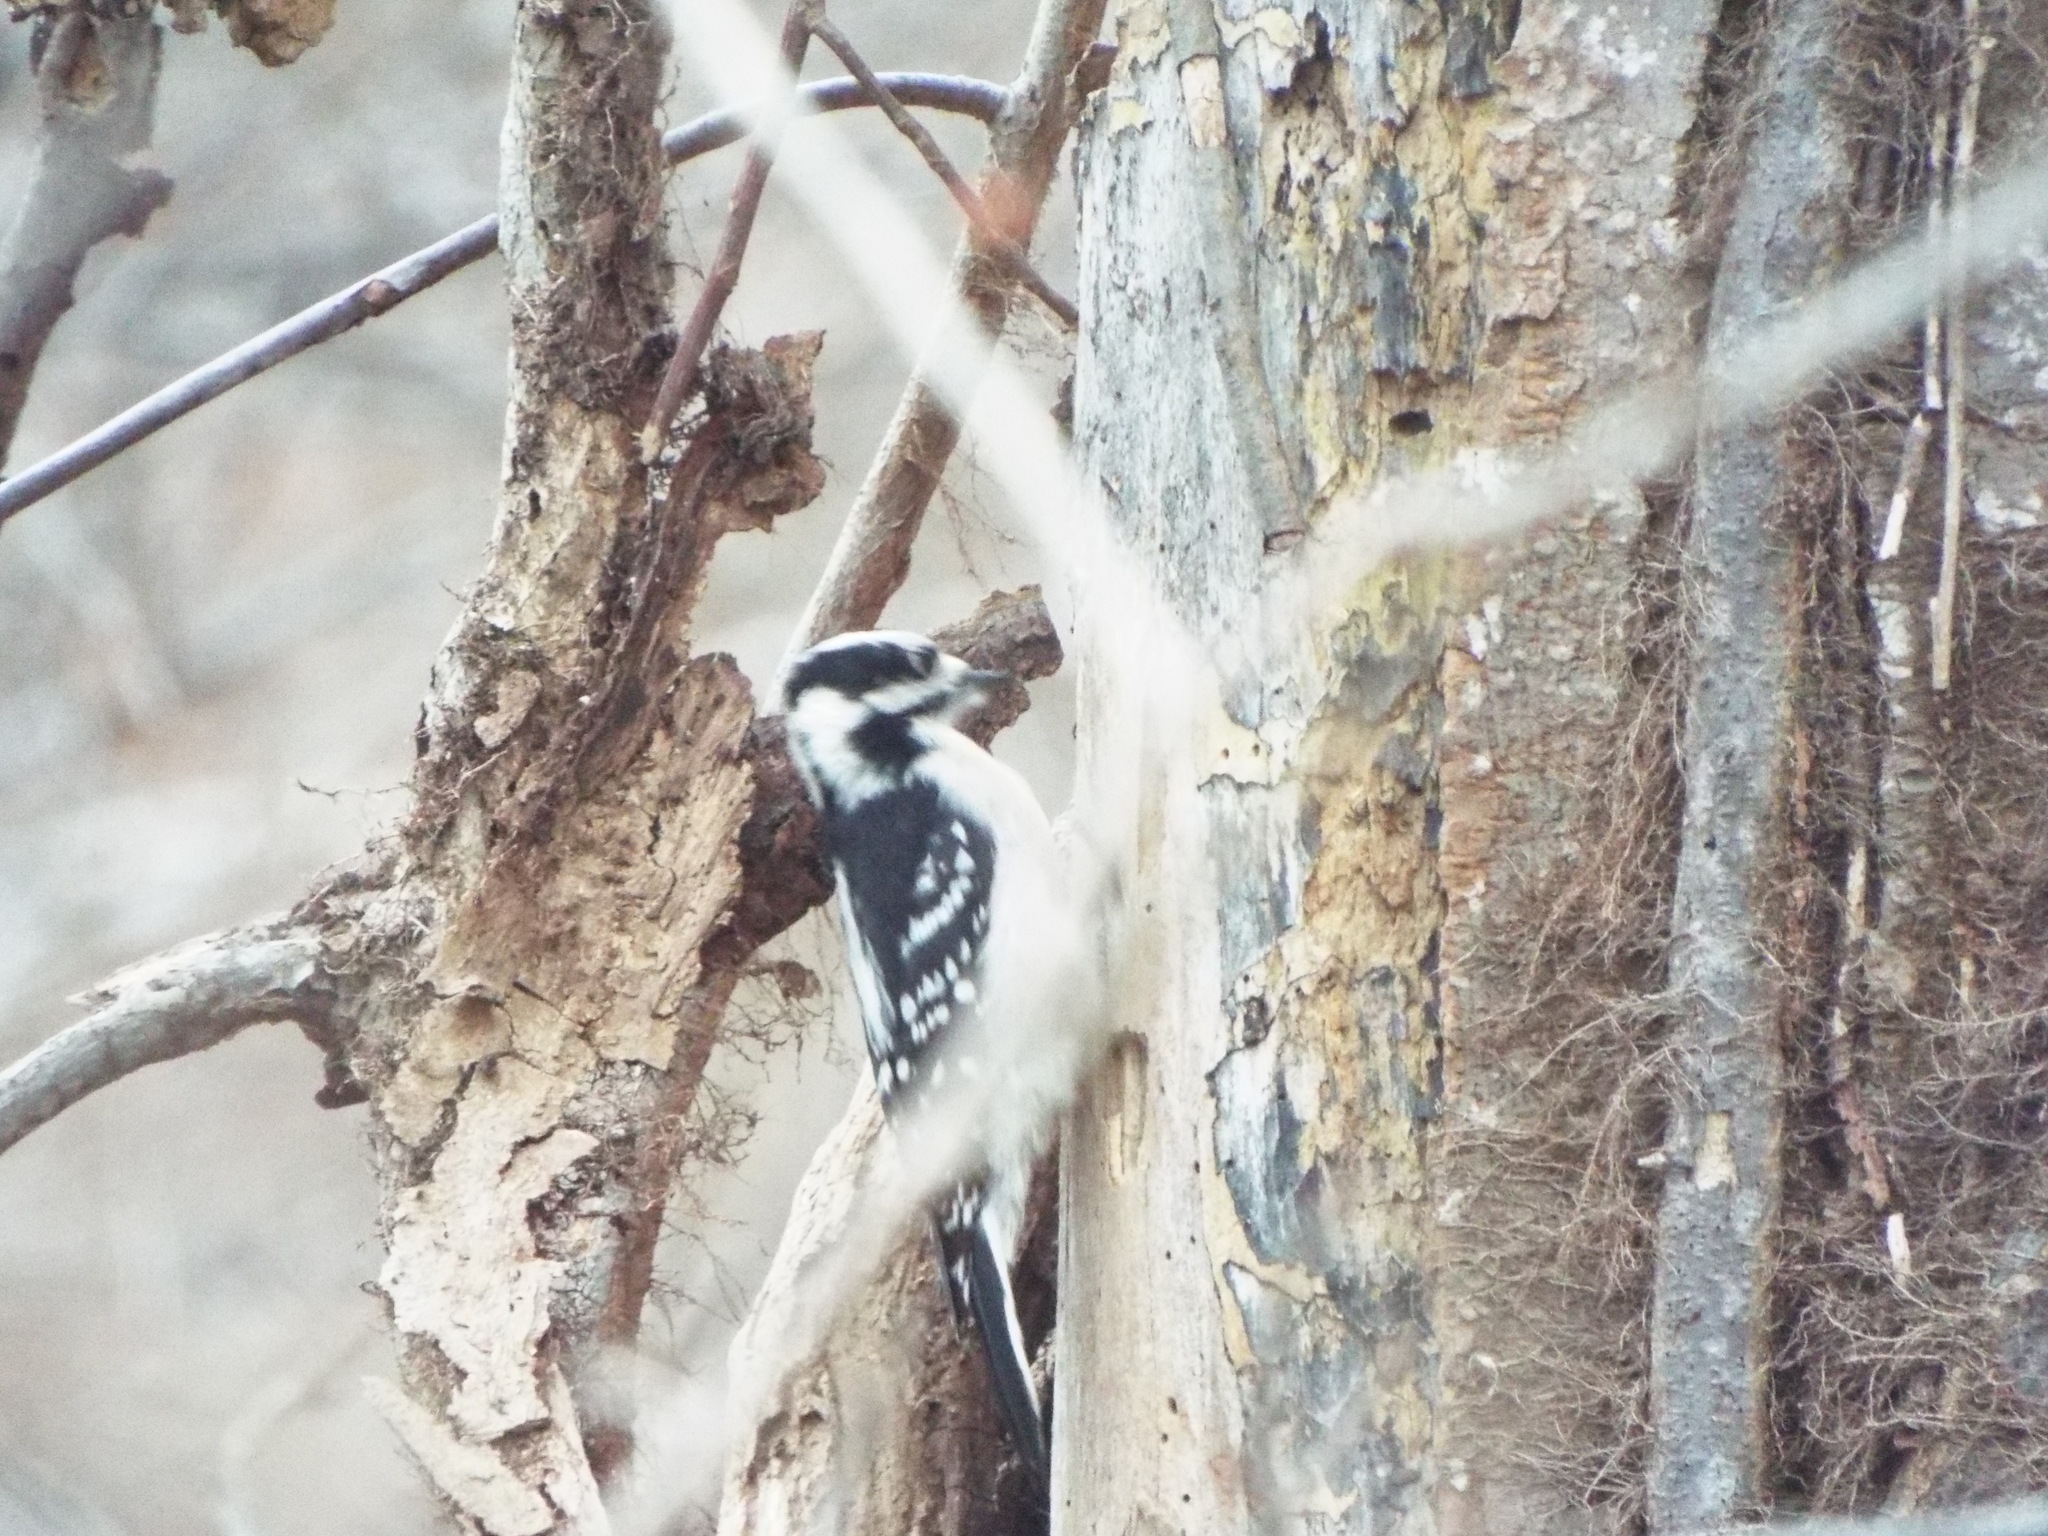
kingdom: Animalia
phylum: Chordata
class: Aves
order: Piciformes
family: Picidae
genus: Dryobates
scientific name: Dryobates pubescens
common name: Downy woodpecker
